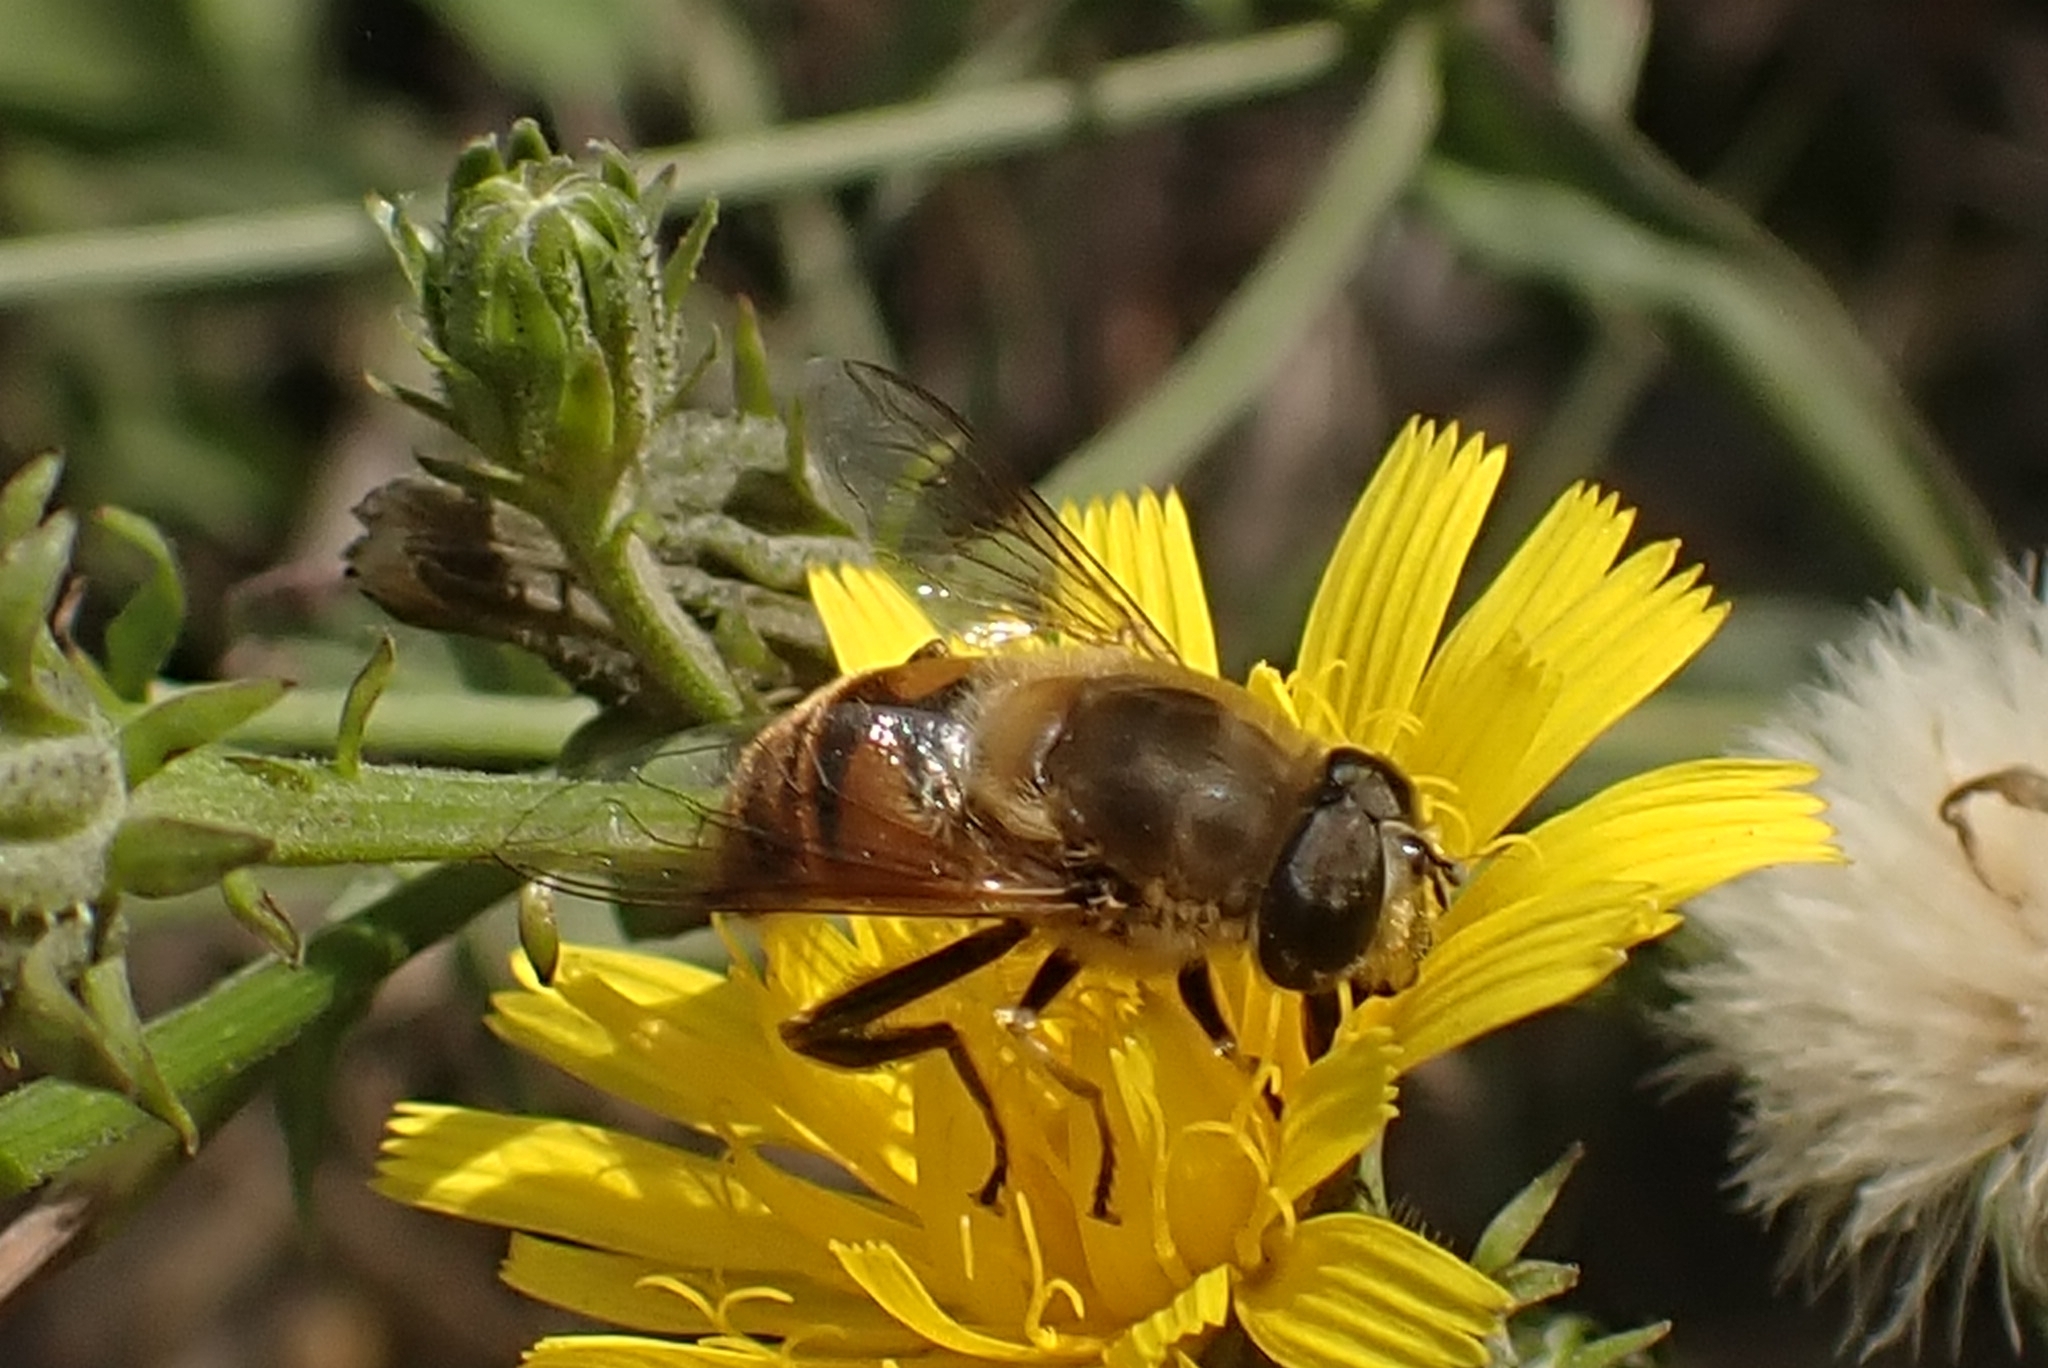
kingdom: Animalia
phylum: Arthropoda
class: Insecta
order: Diptera
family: Syrphidae
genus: Eristalis
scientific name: Eristalis tenax
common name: Drone fly
